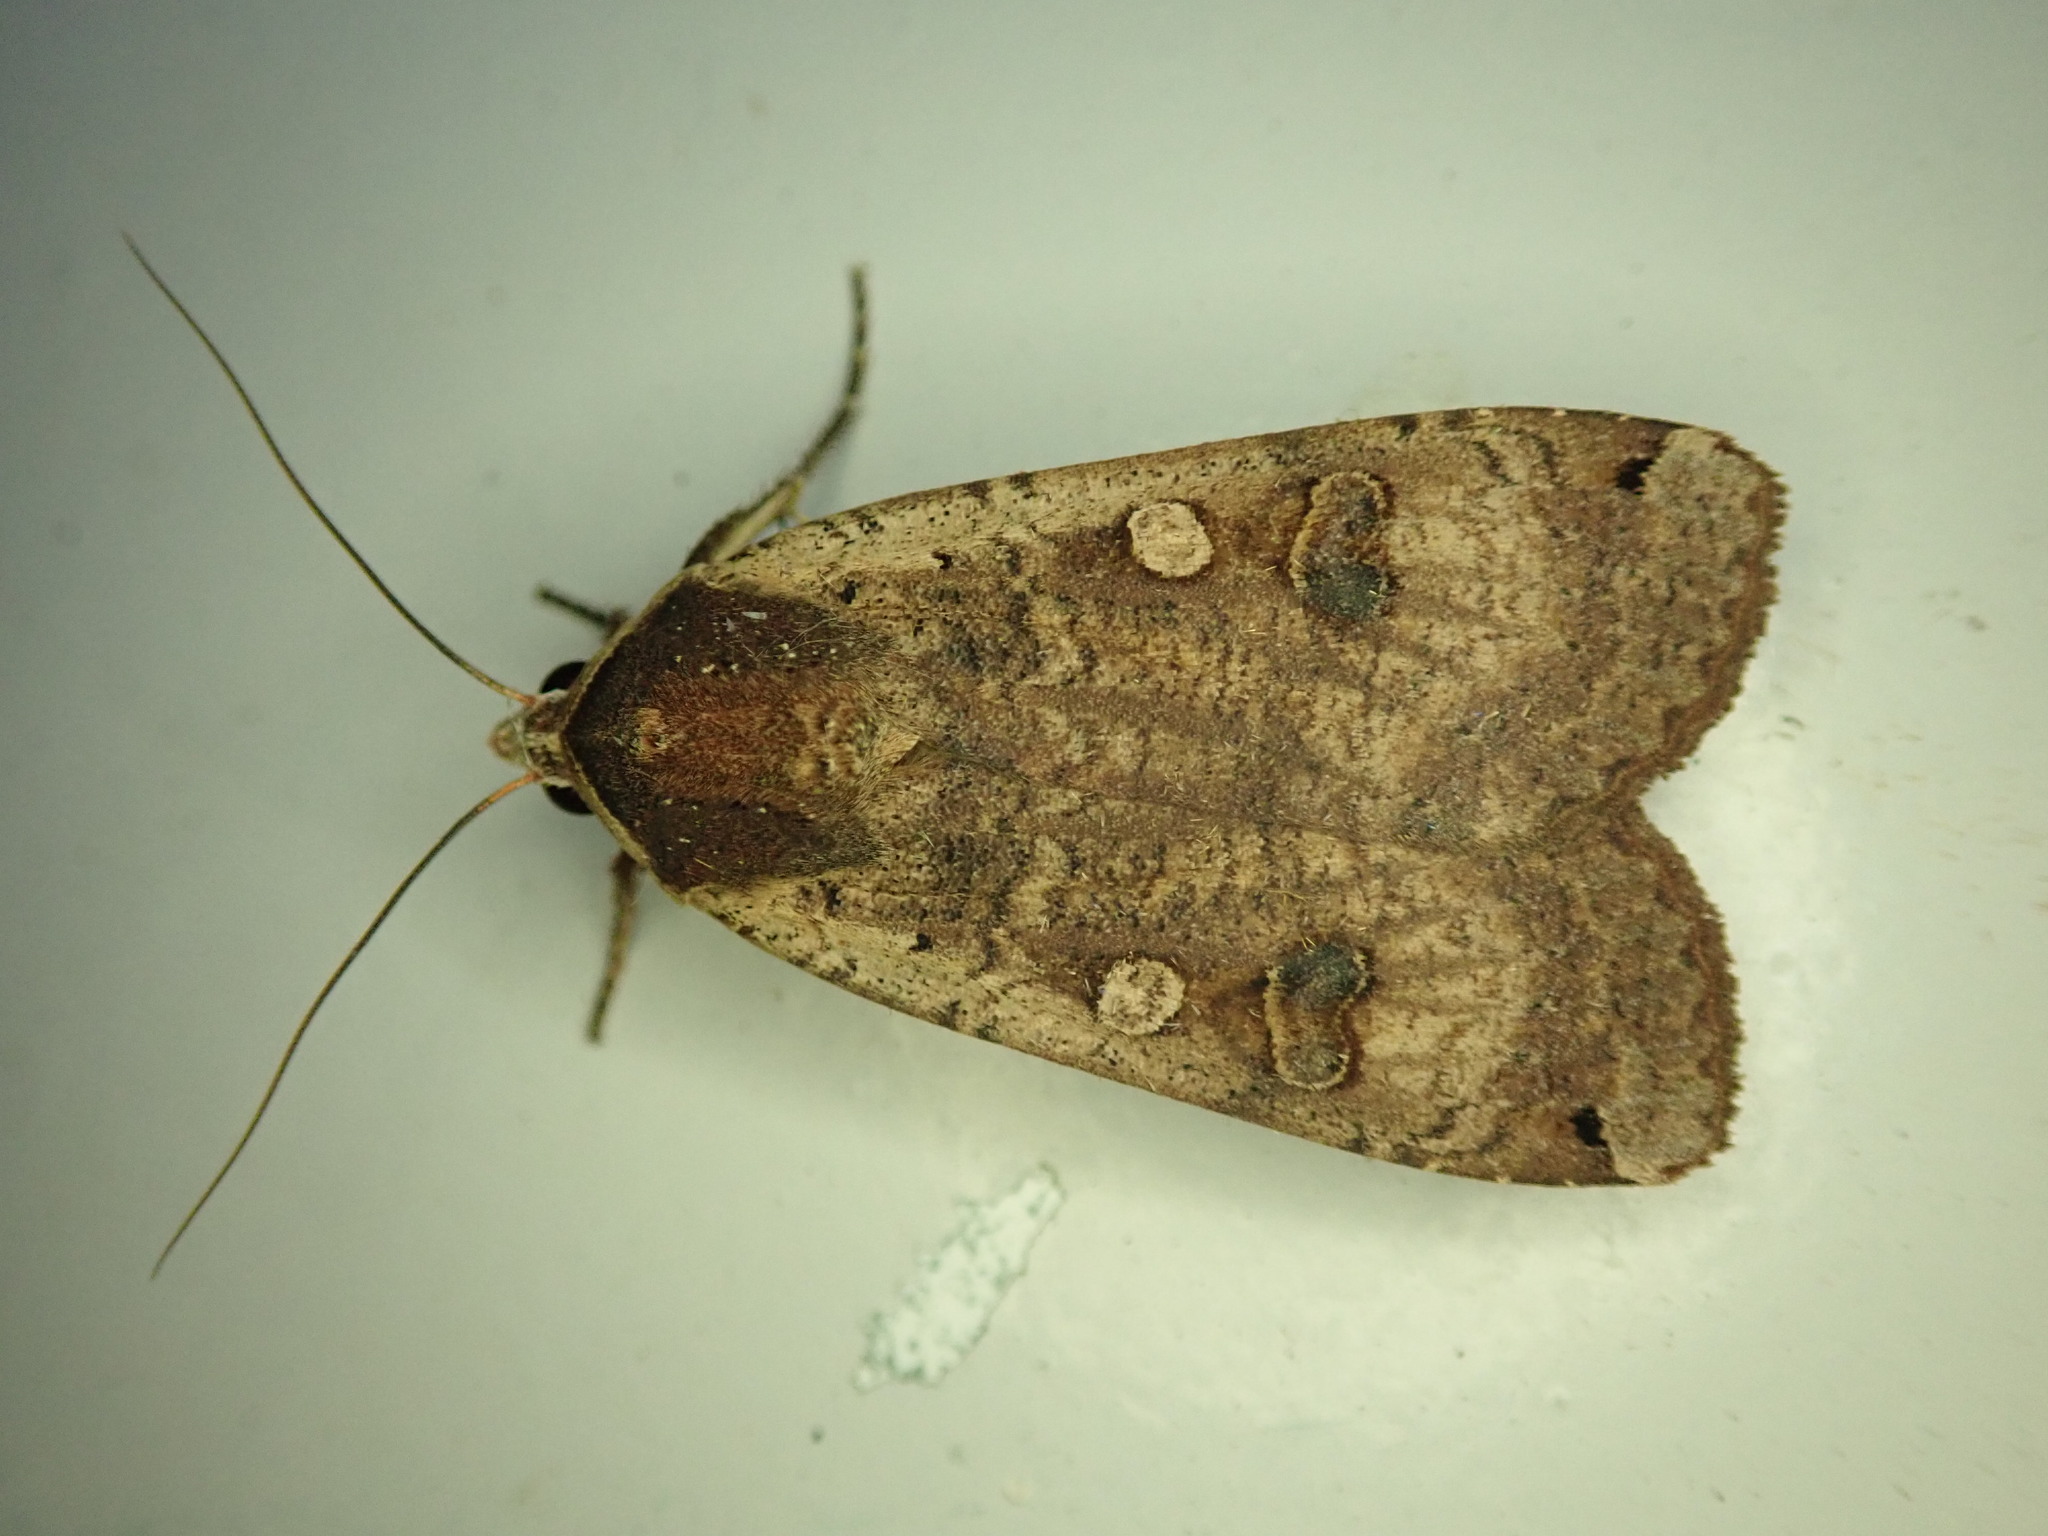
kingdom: Animalia
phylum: Arthropoda
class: Insecta
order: Lepidoptera
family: Noctuidae
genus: Noctua
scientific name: Noctua pronuba
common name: Large yellow underwing
